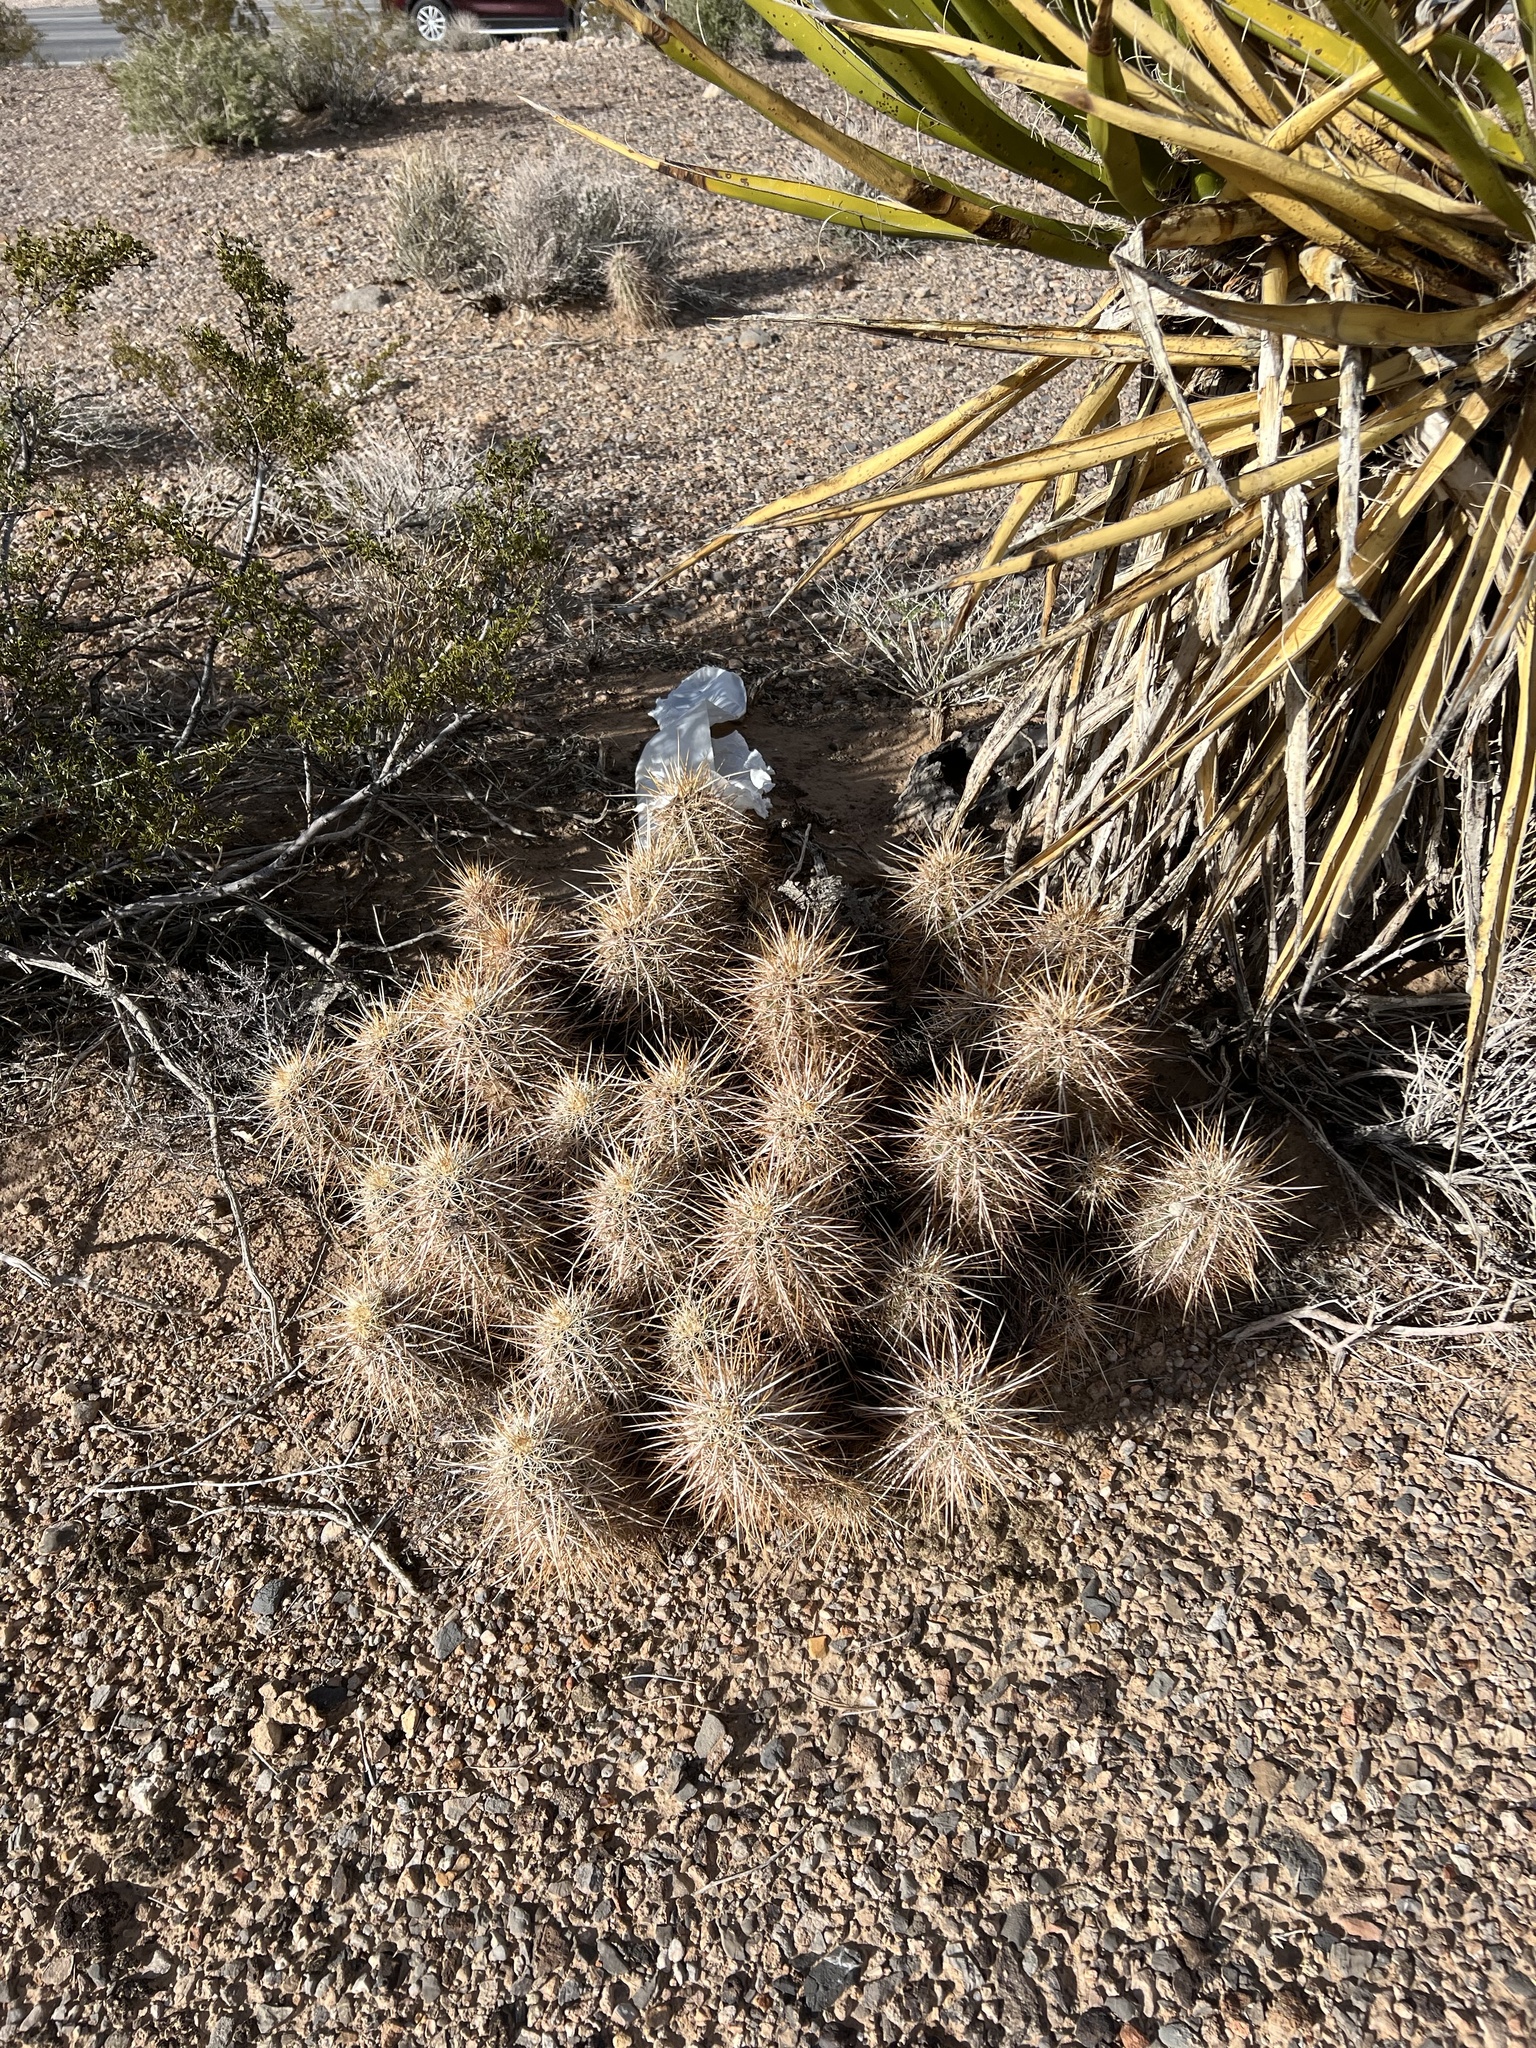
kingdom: Plantae
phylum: Tracheophyta
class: Magnoliopsida
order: Caryophyllales
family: Cactaceae
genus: Echinocereus
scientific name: Echinocereus engelmannii
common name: Engelmann's hedgehog cactus
